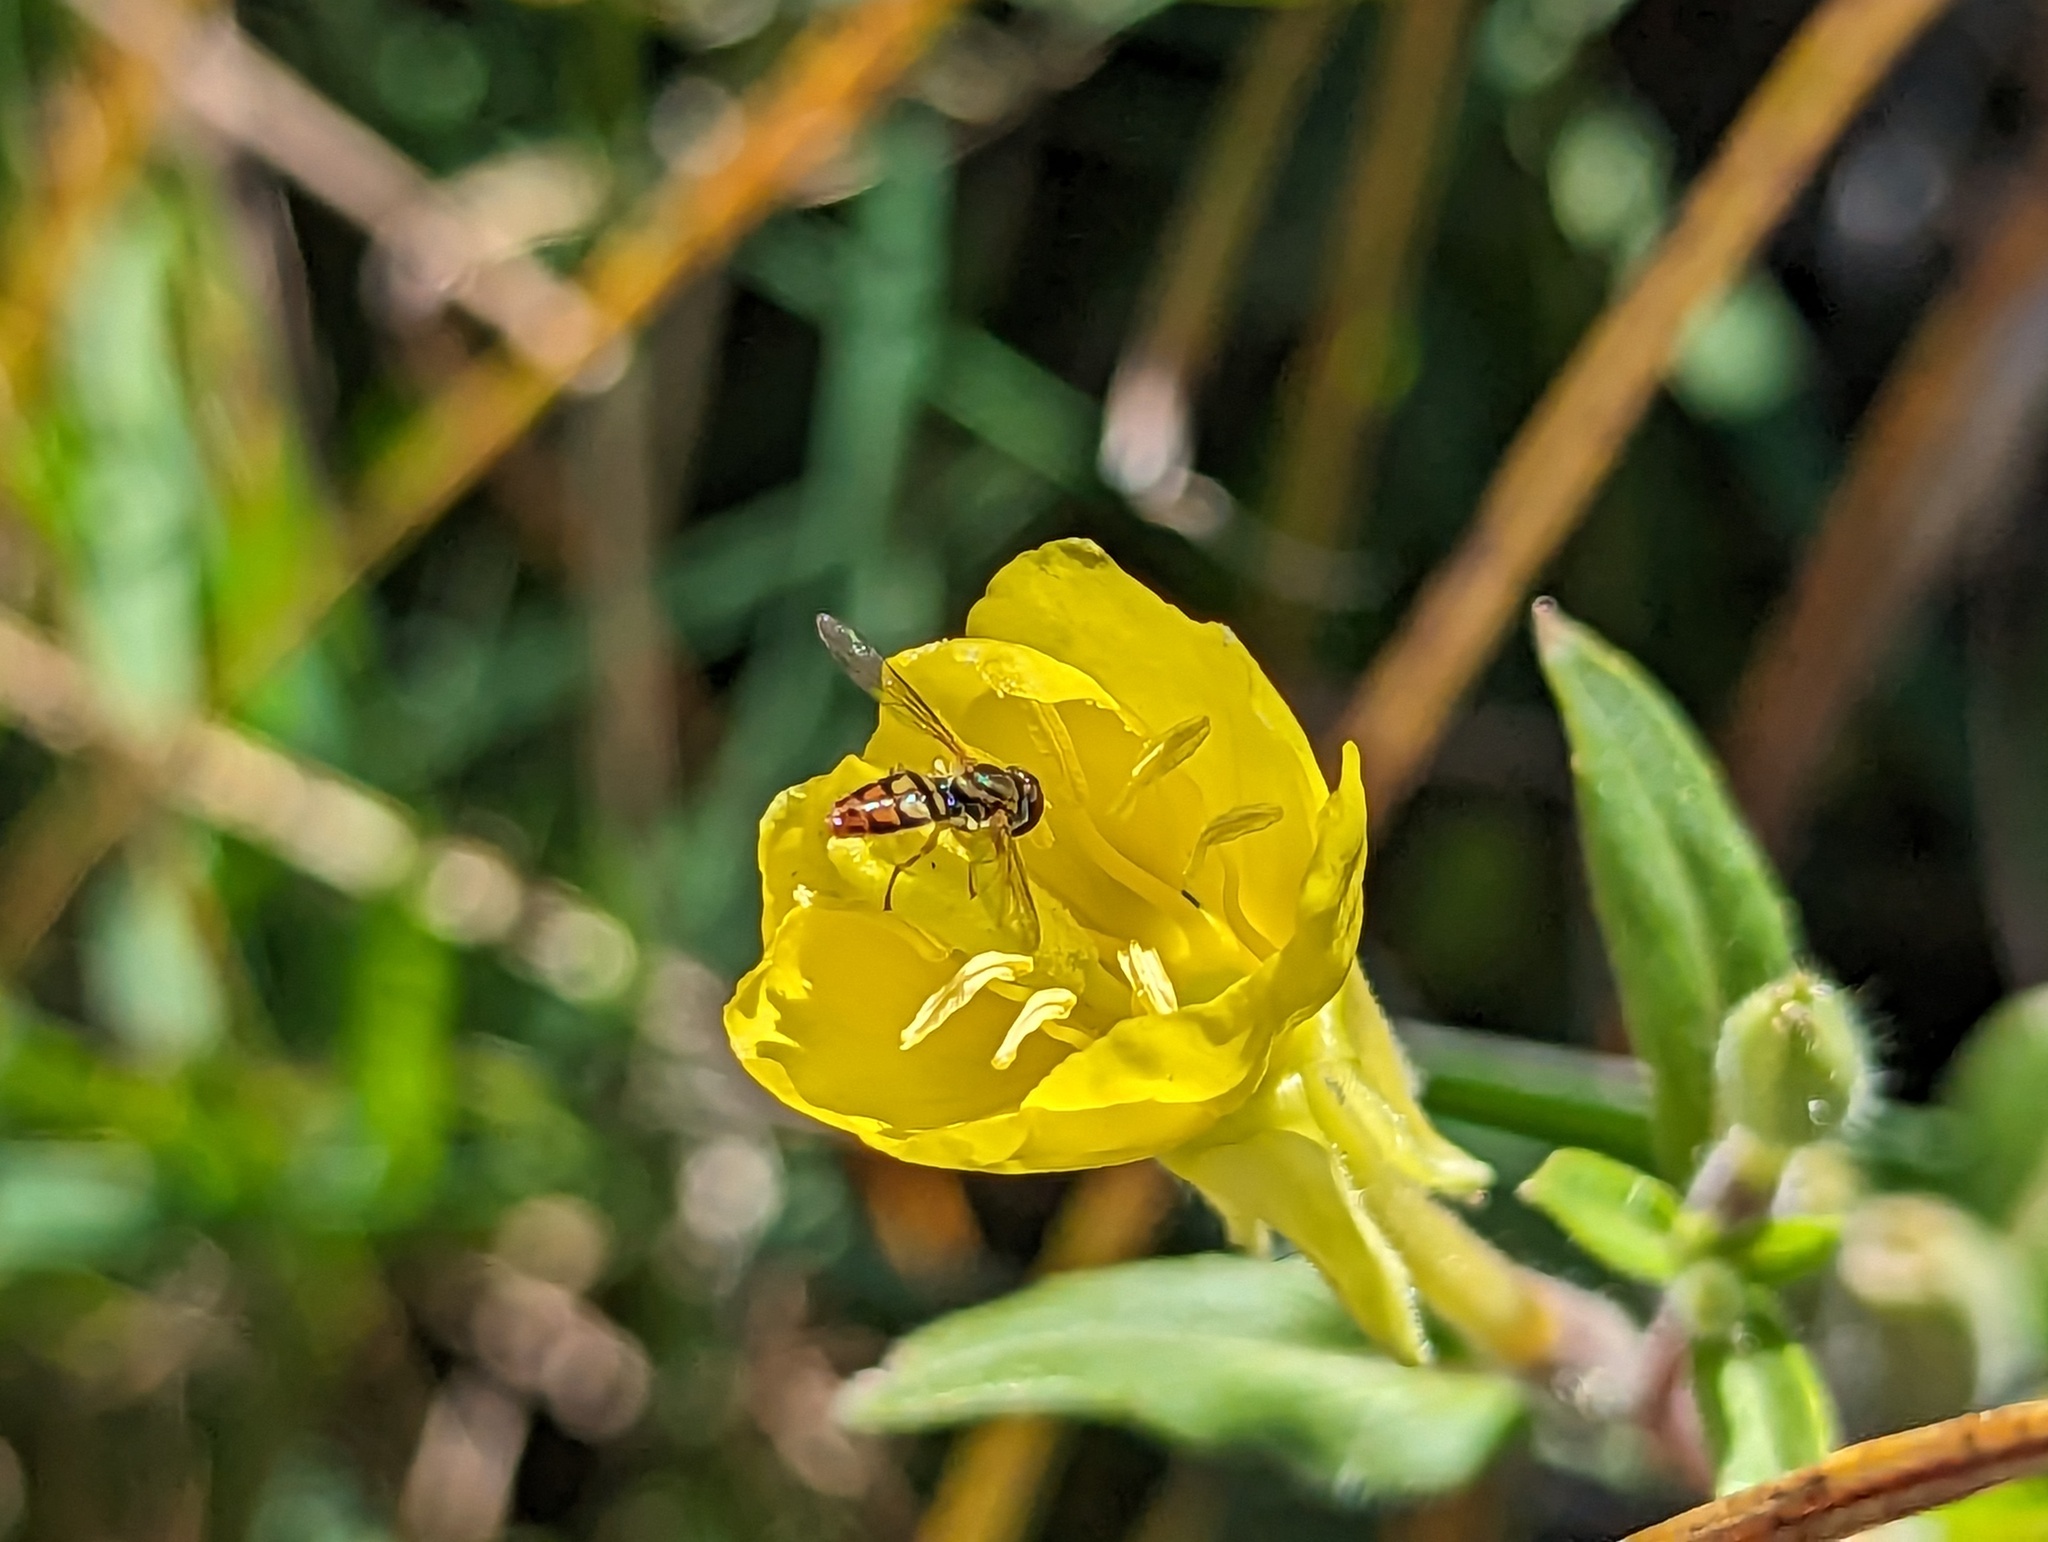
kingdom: Animalia
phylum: Arthropoda
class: Insecta
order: Diptera
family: Syrphidae
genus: Toxomerus
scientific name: Toxomerus marginatus
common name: Syrphid fly
